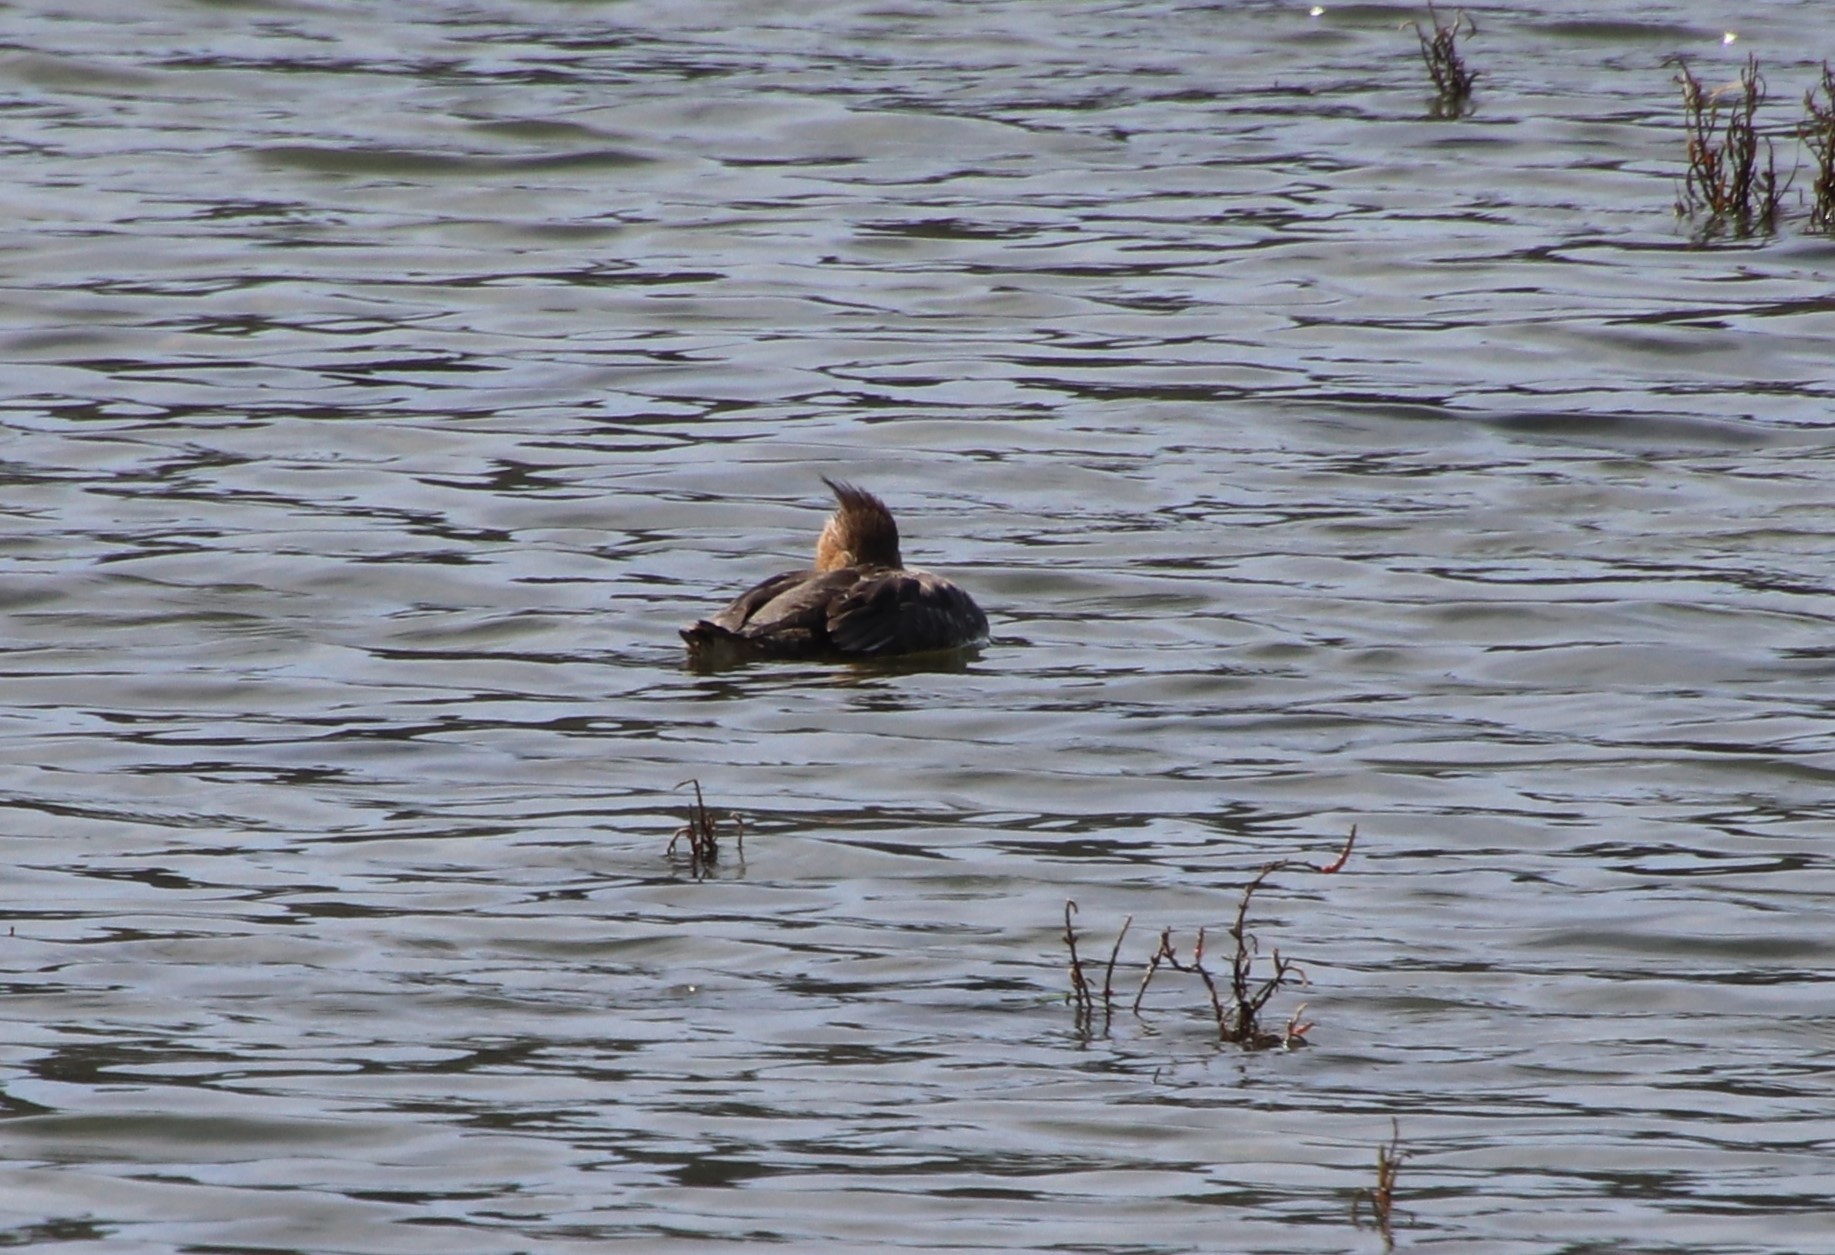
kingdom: Animalia
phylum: Chordata
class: Aves
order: Anseriformes
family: Anatidae
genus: Mergus
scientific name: Mergus serrator
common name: Red-breasted merganser
